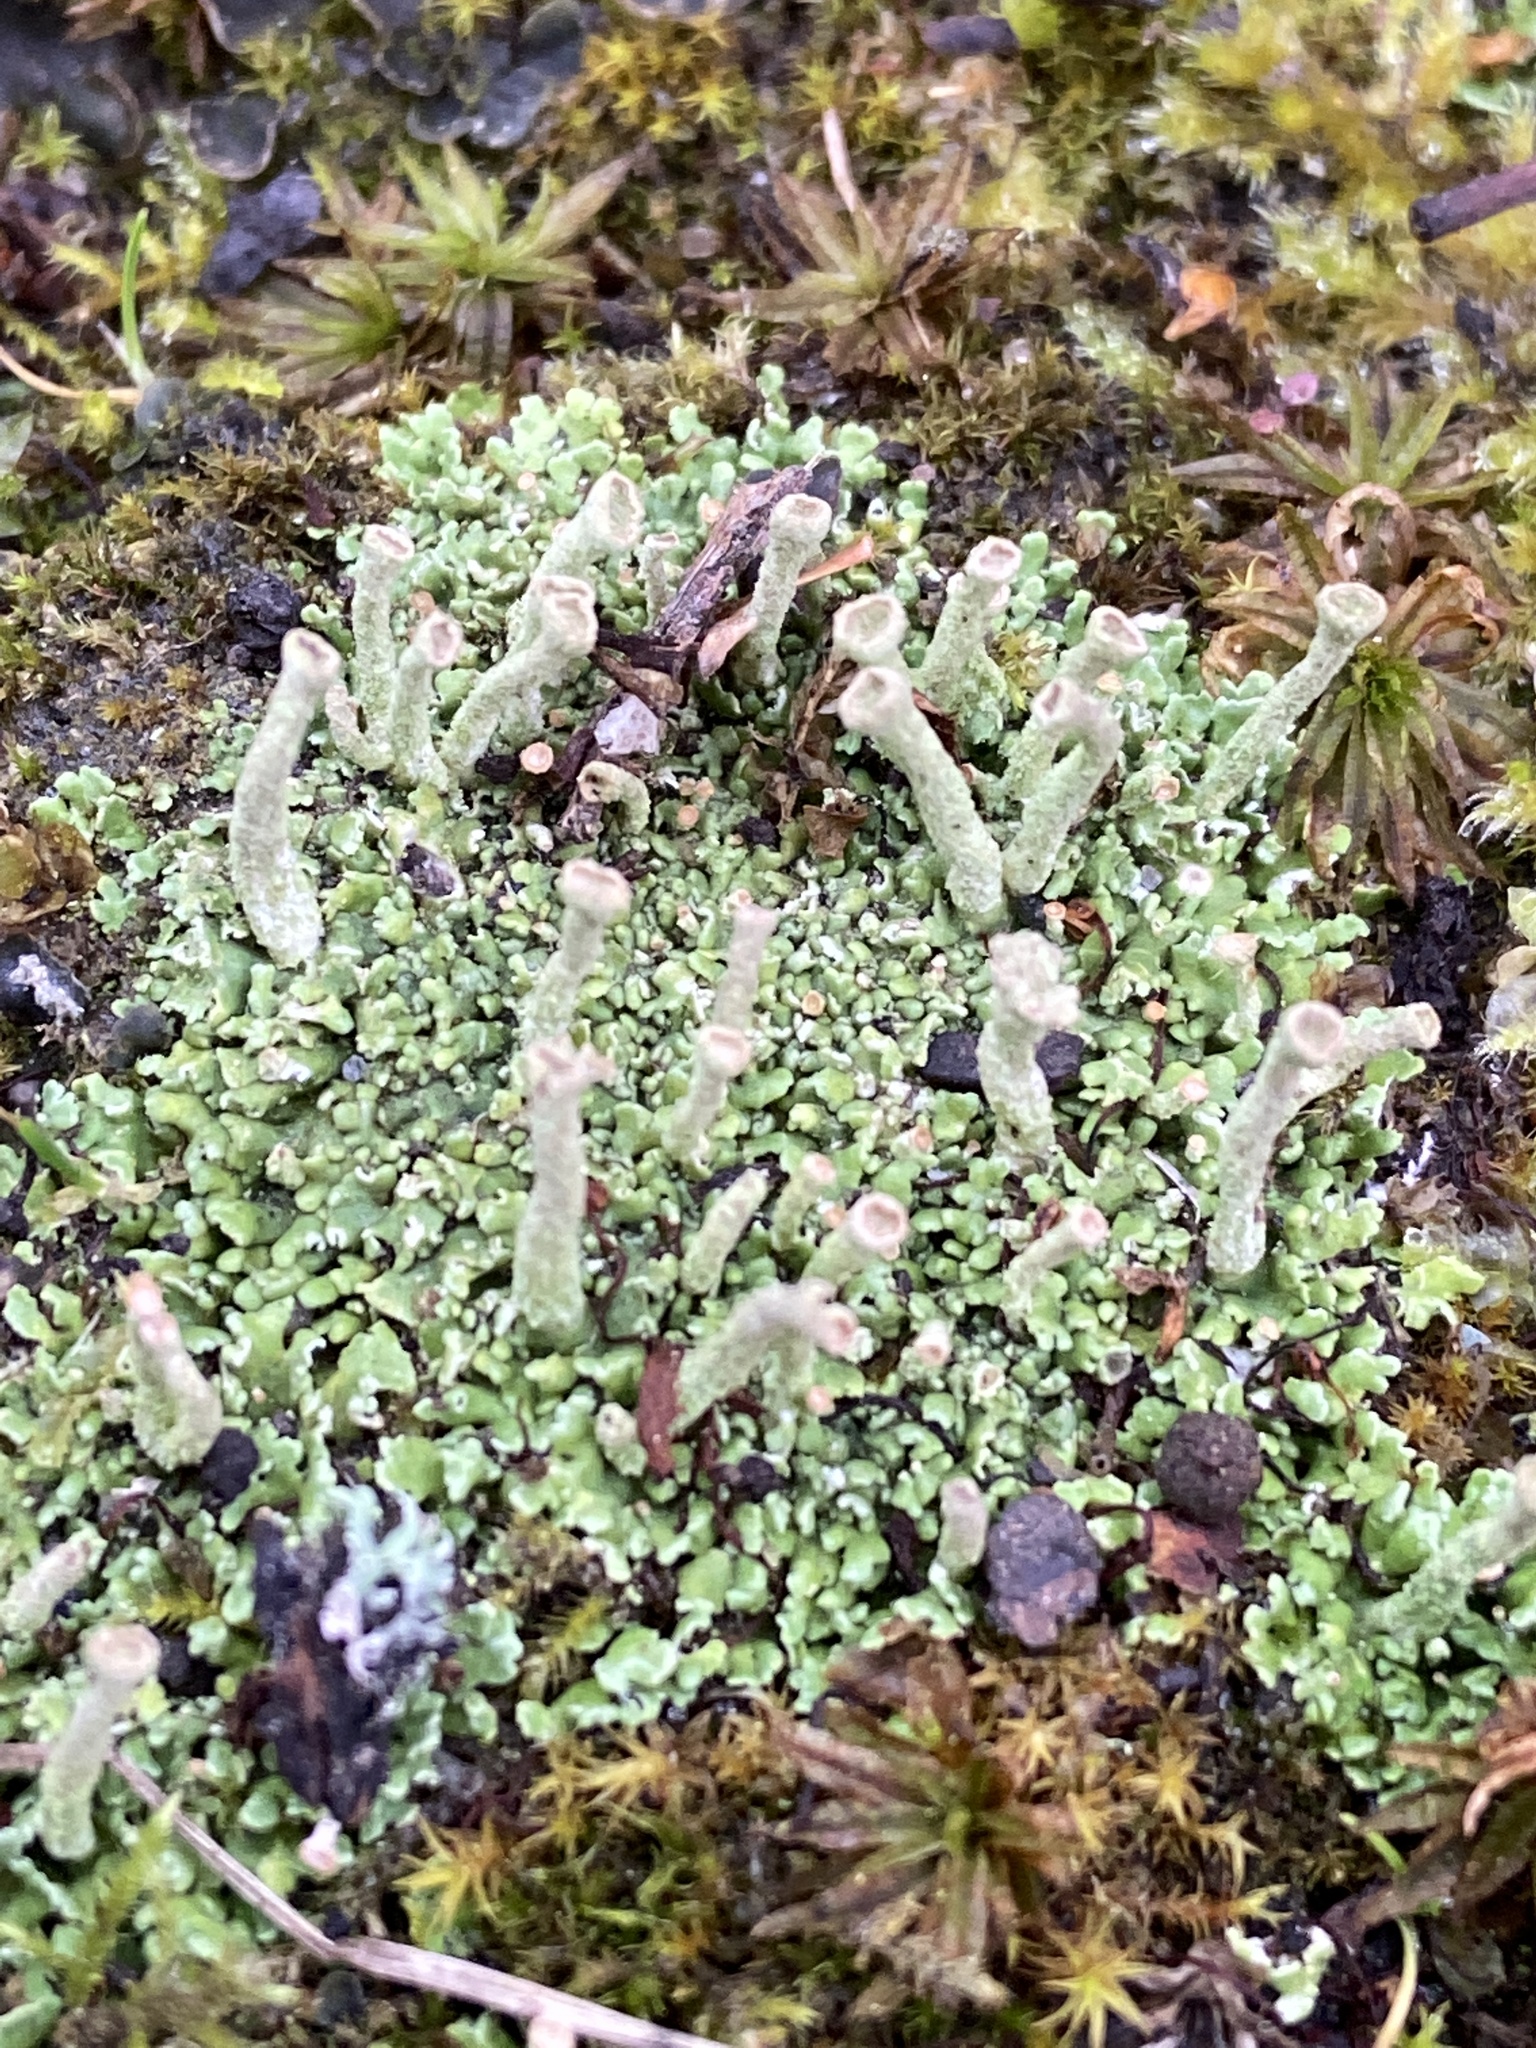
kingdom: Fungi
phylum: Ascomycota
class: Lecanoromycetes
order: Lecanorales
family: Cladoniaceae
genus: Cladonia
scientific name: Cladonia fimbriata
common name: Powdered trumpet lichen
